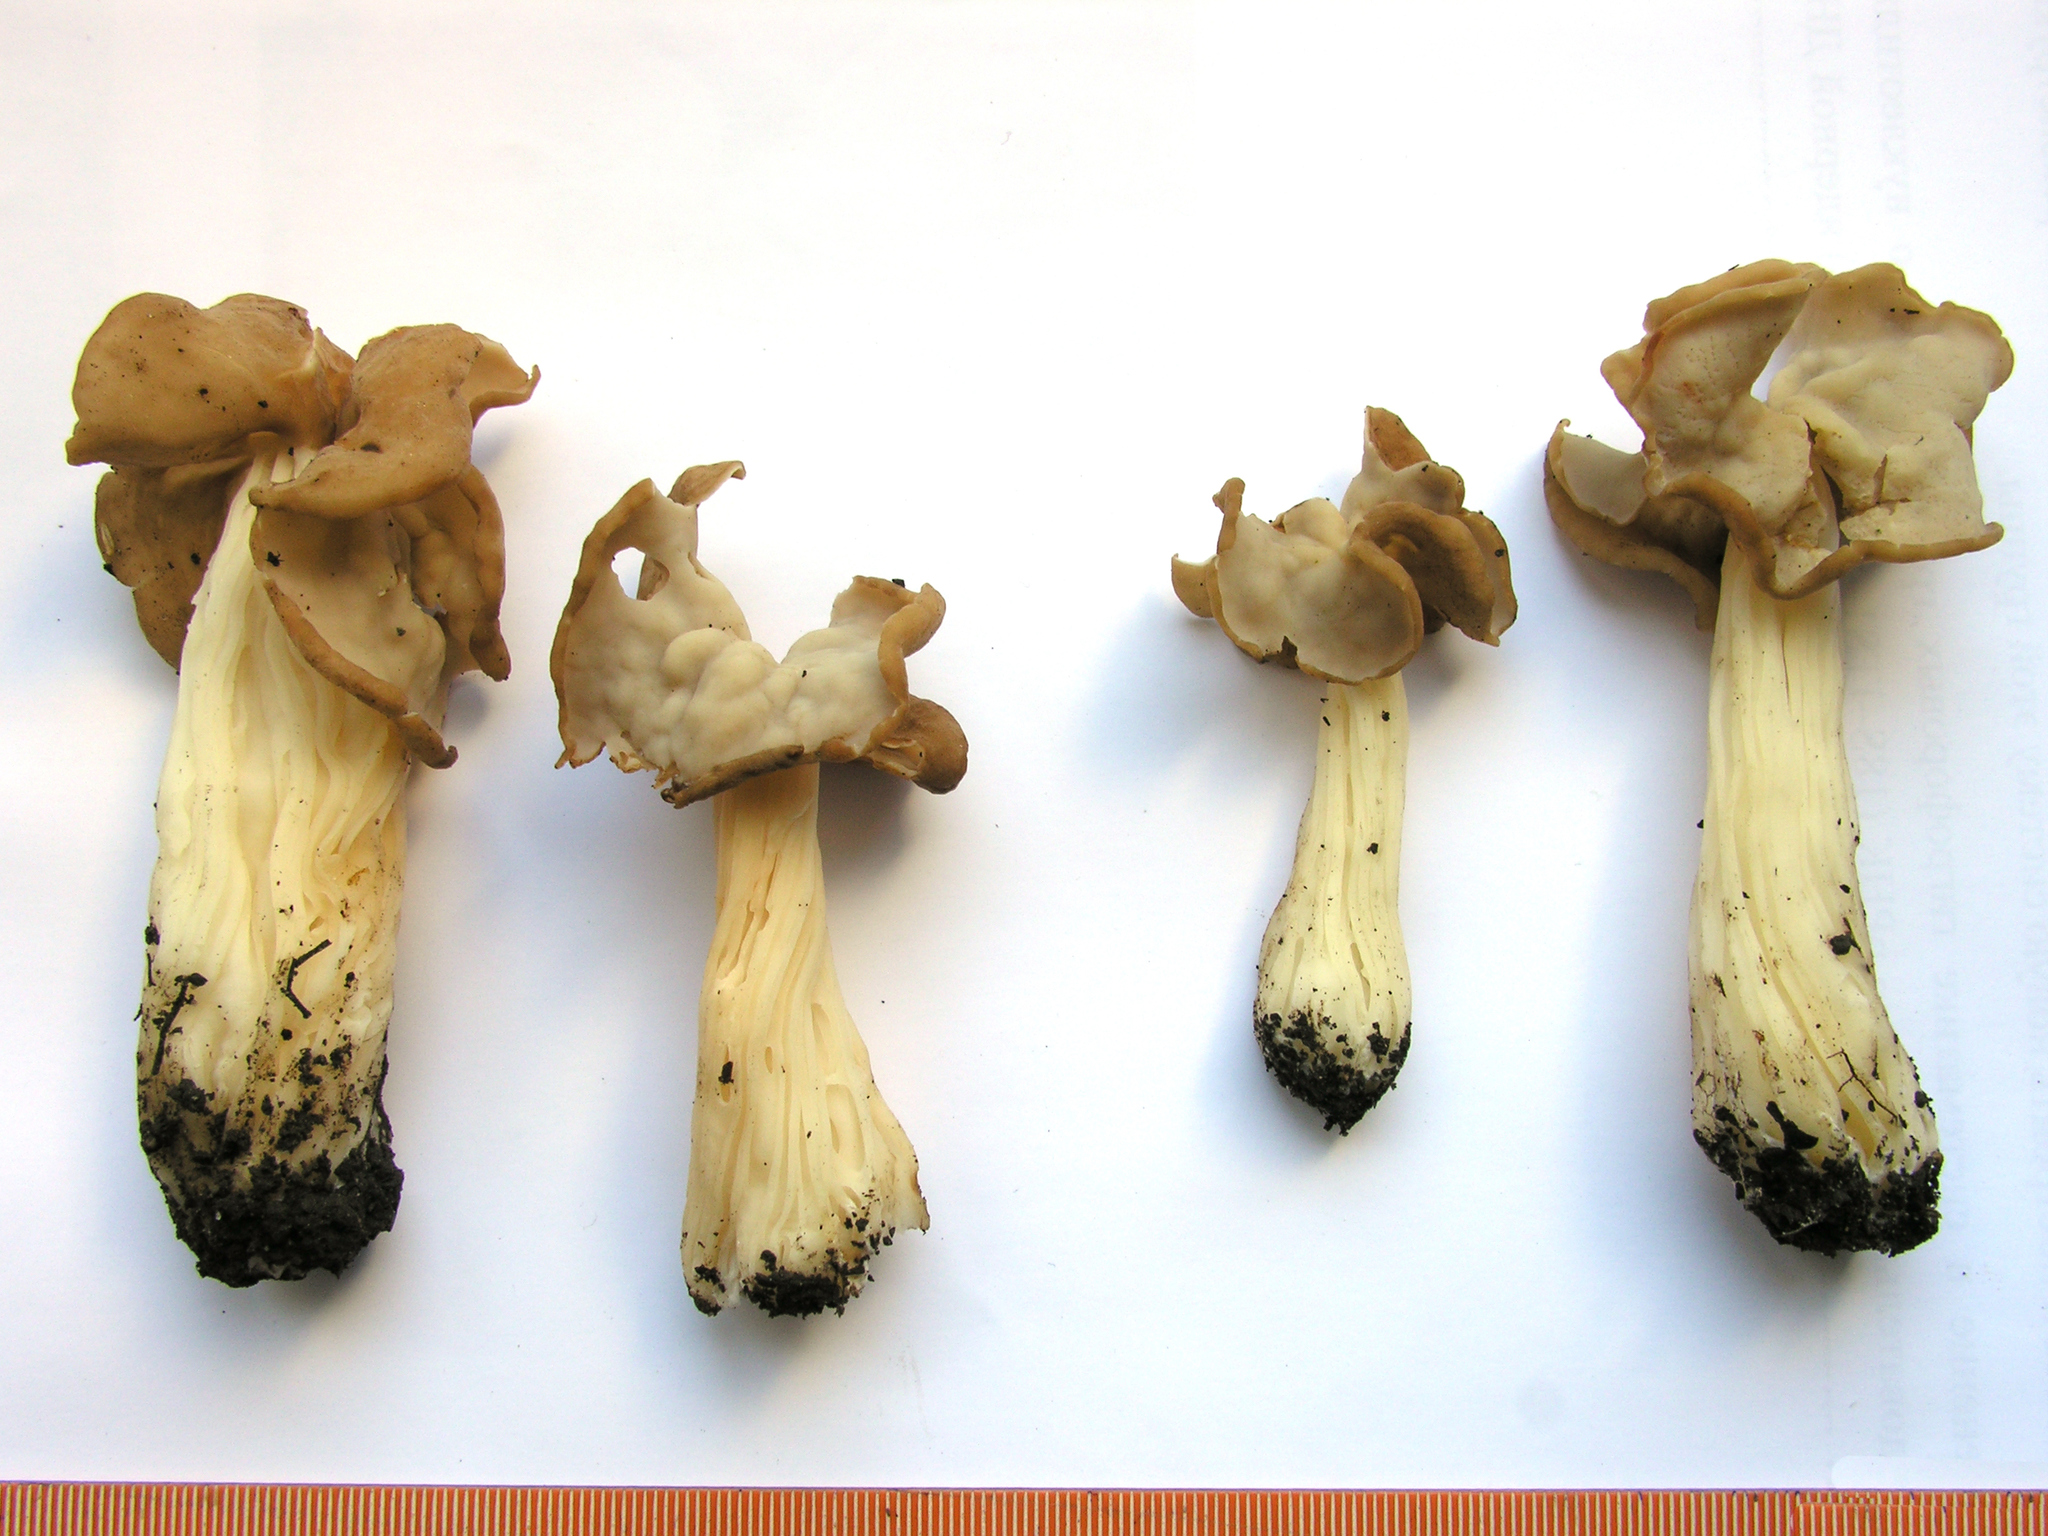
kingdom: Fungi
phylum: Ascomycota
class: Pezizomycetes
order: Pezizales
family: Helvellaceae
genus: Helvella
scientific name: Helvella crispa
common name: White saddle
